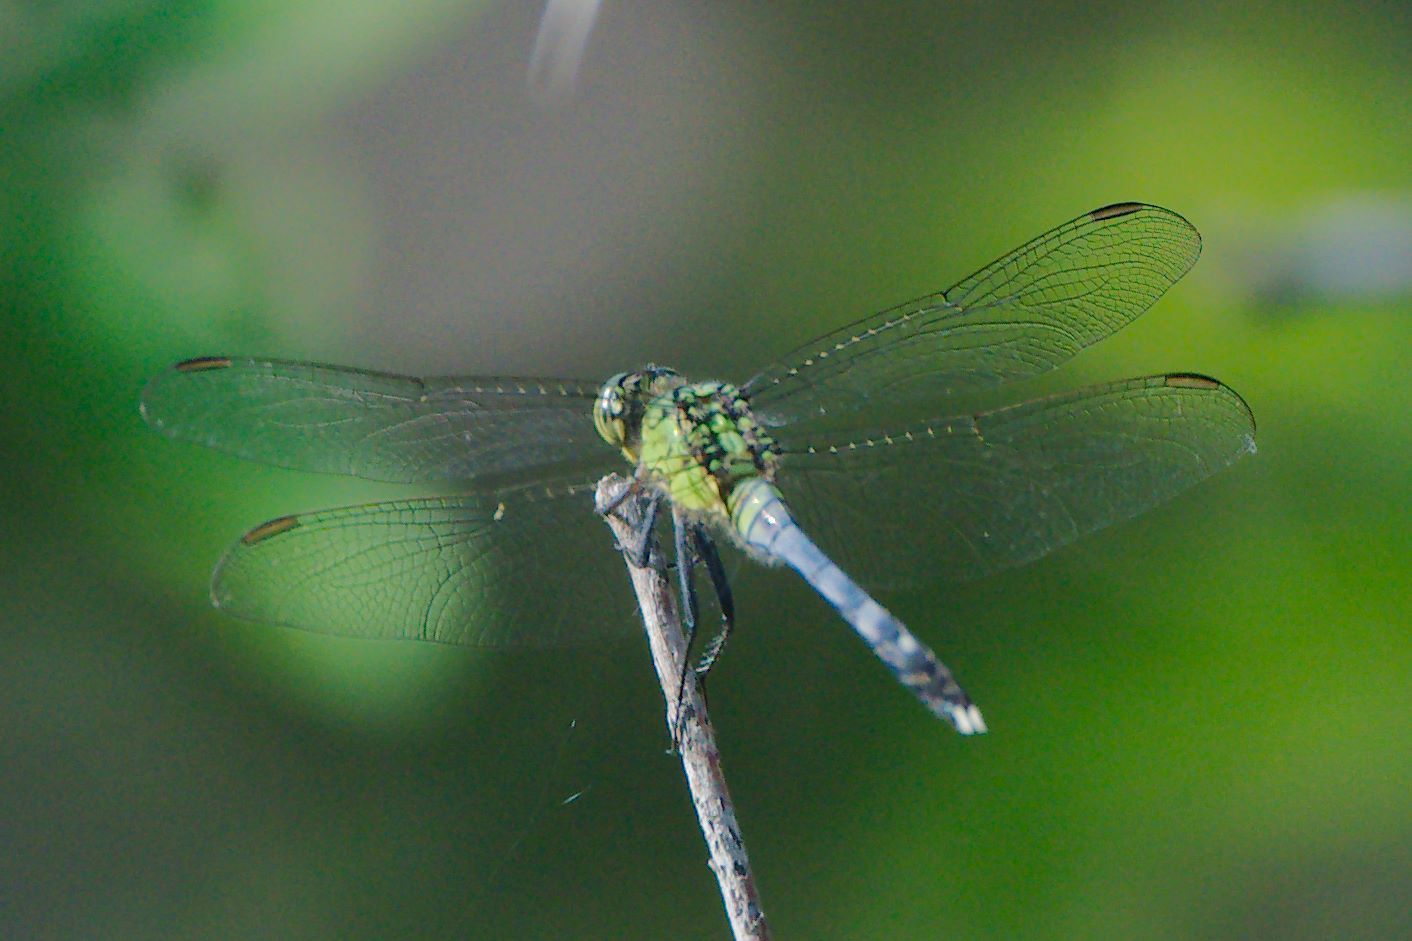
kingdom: Animalia
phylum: Arthropoda
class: Insecta
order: Odonata
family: Libellulidae
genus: Erythemis
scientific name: Erythemis simplicicollis
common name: Eastern pondhawk
